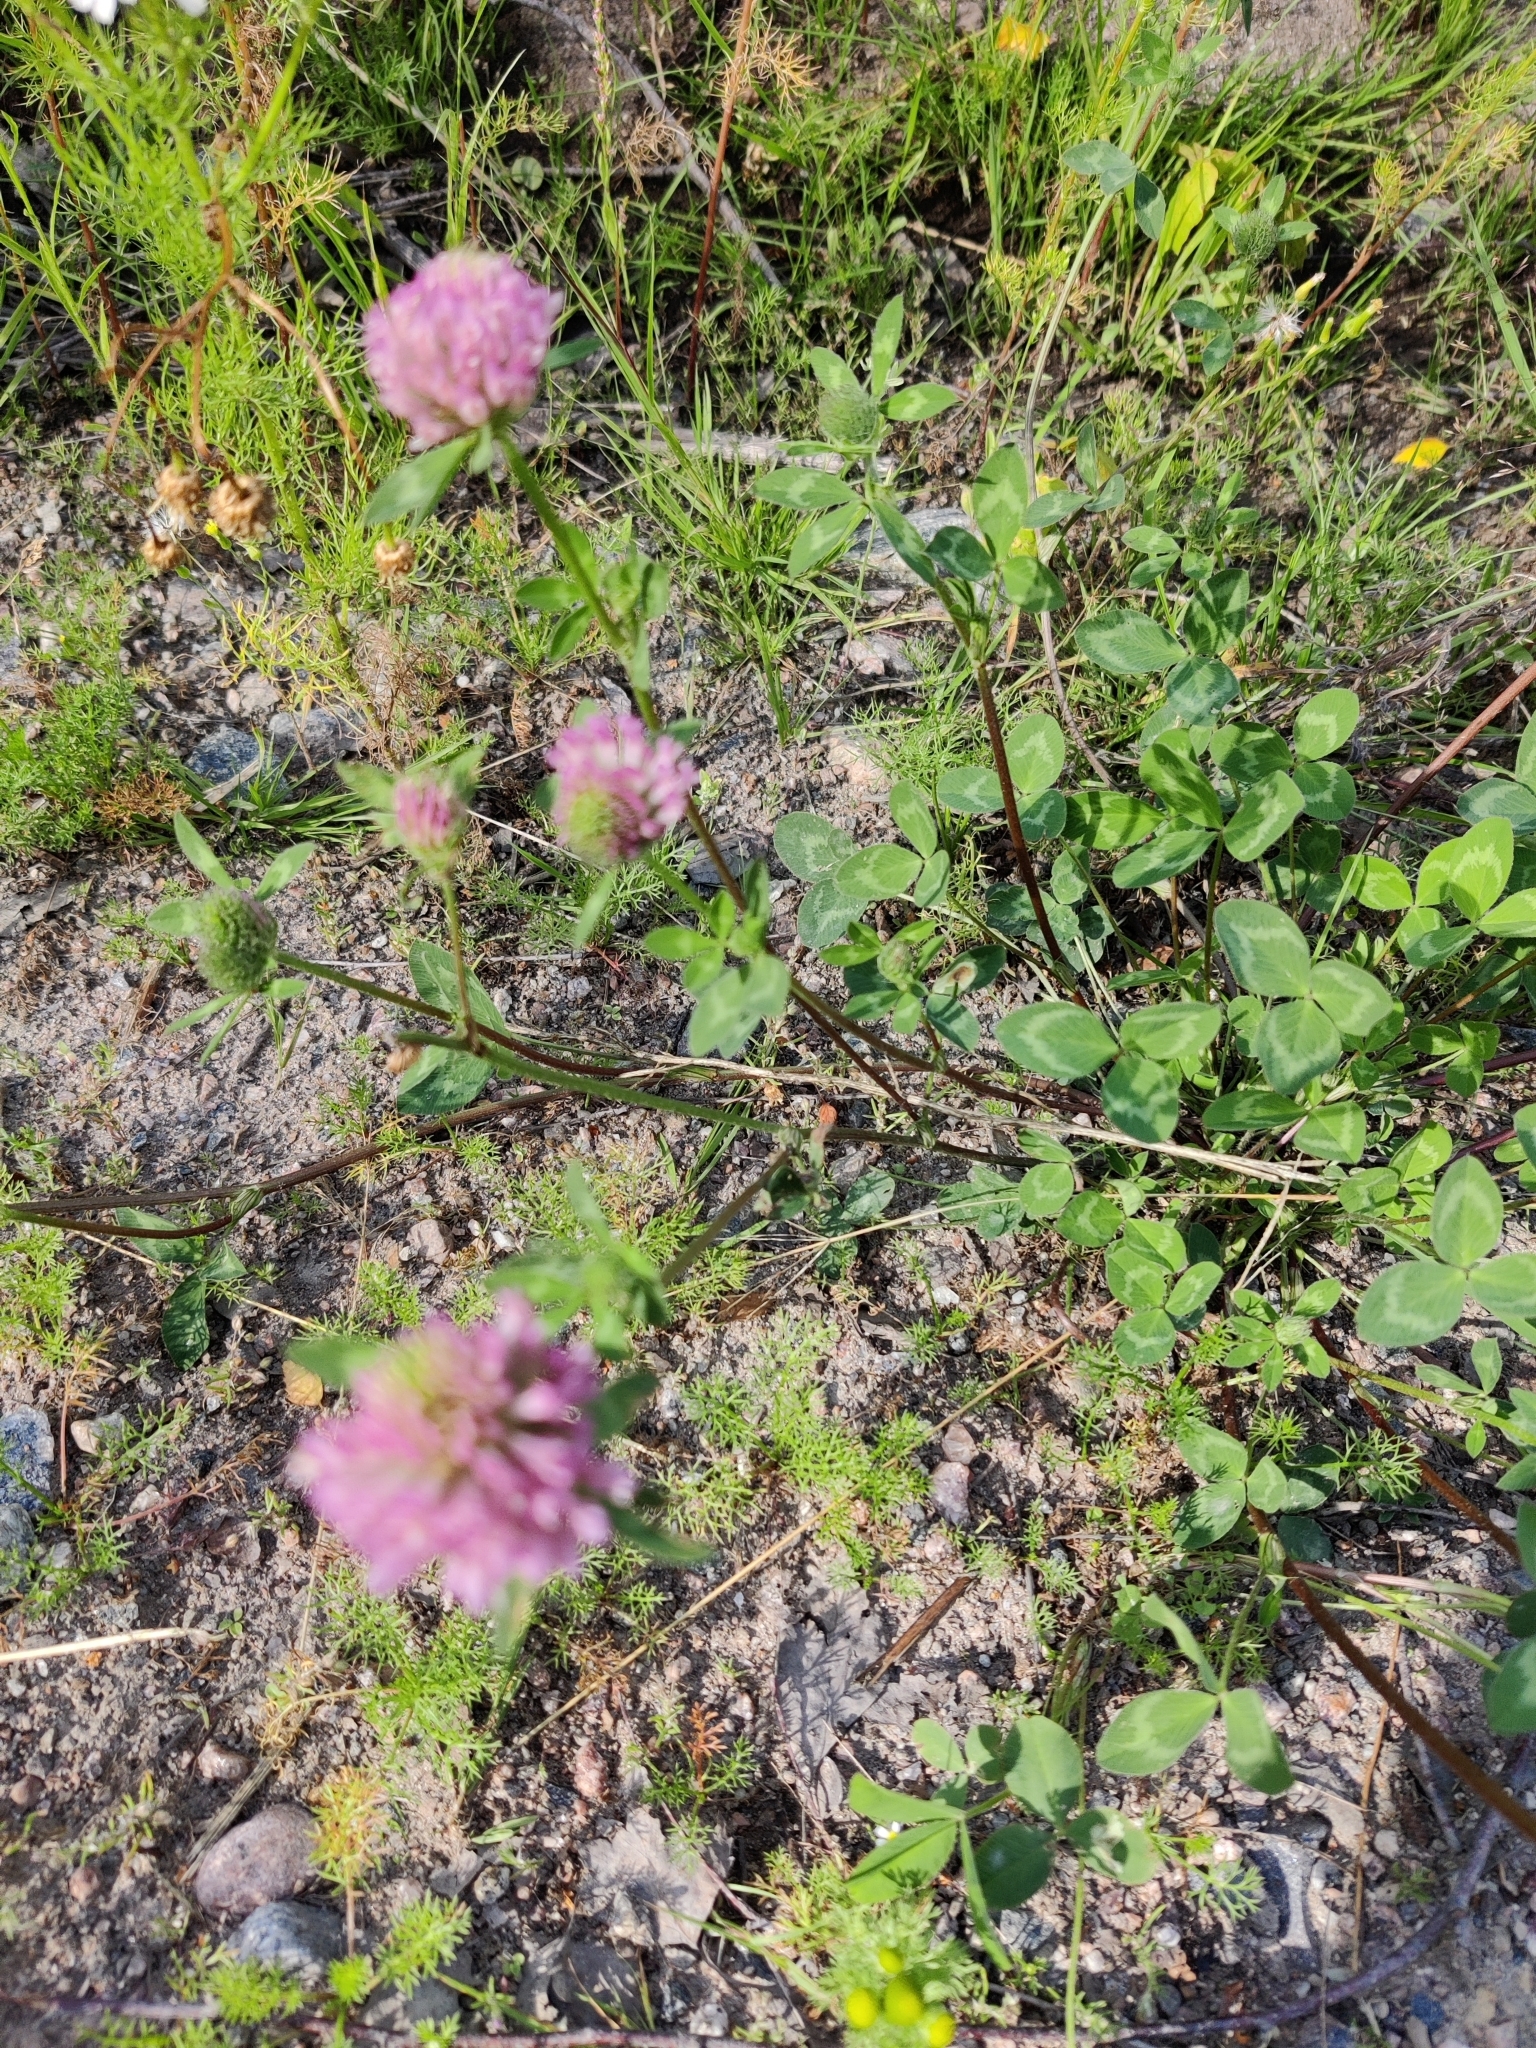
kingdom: Plantae
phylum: Tracheophyta
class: Magnoliopsida
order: Fabales
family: Fabaceae
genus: Trifolium
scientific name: Trifolium pratense
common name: Red clover
